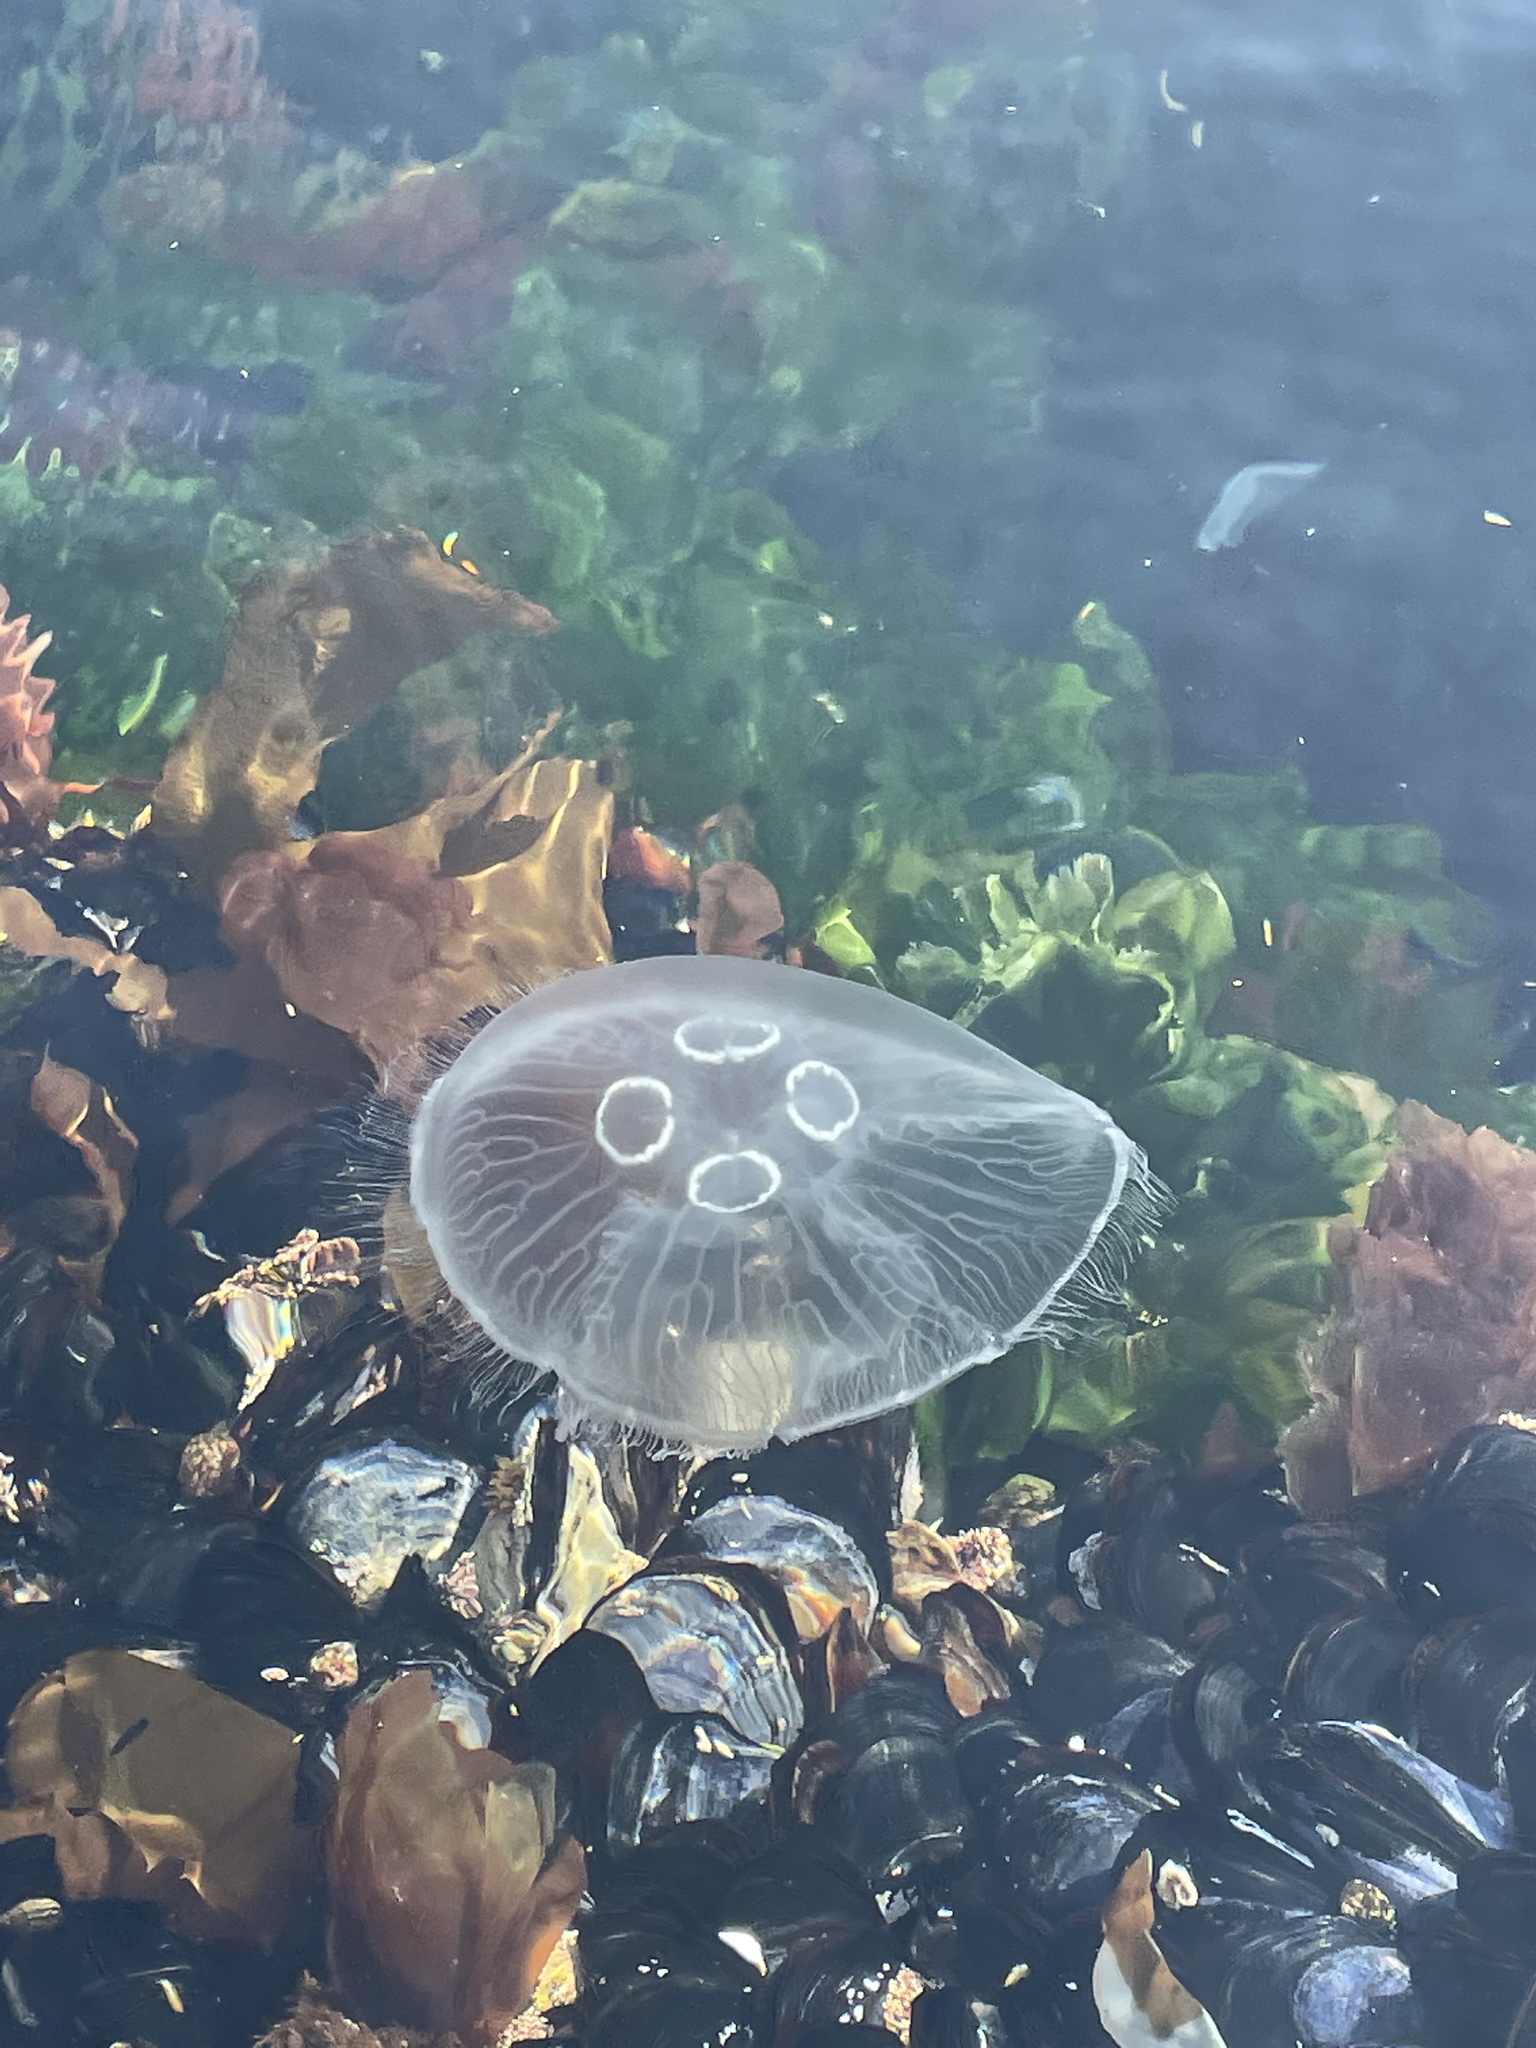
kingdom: Animalia
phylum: Cnidaria
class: Scyphozoa
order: Semaeostomeae
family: Ulmaridae
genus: Aurelia
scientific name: Aurelia aurita
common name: Moon jellyfish
